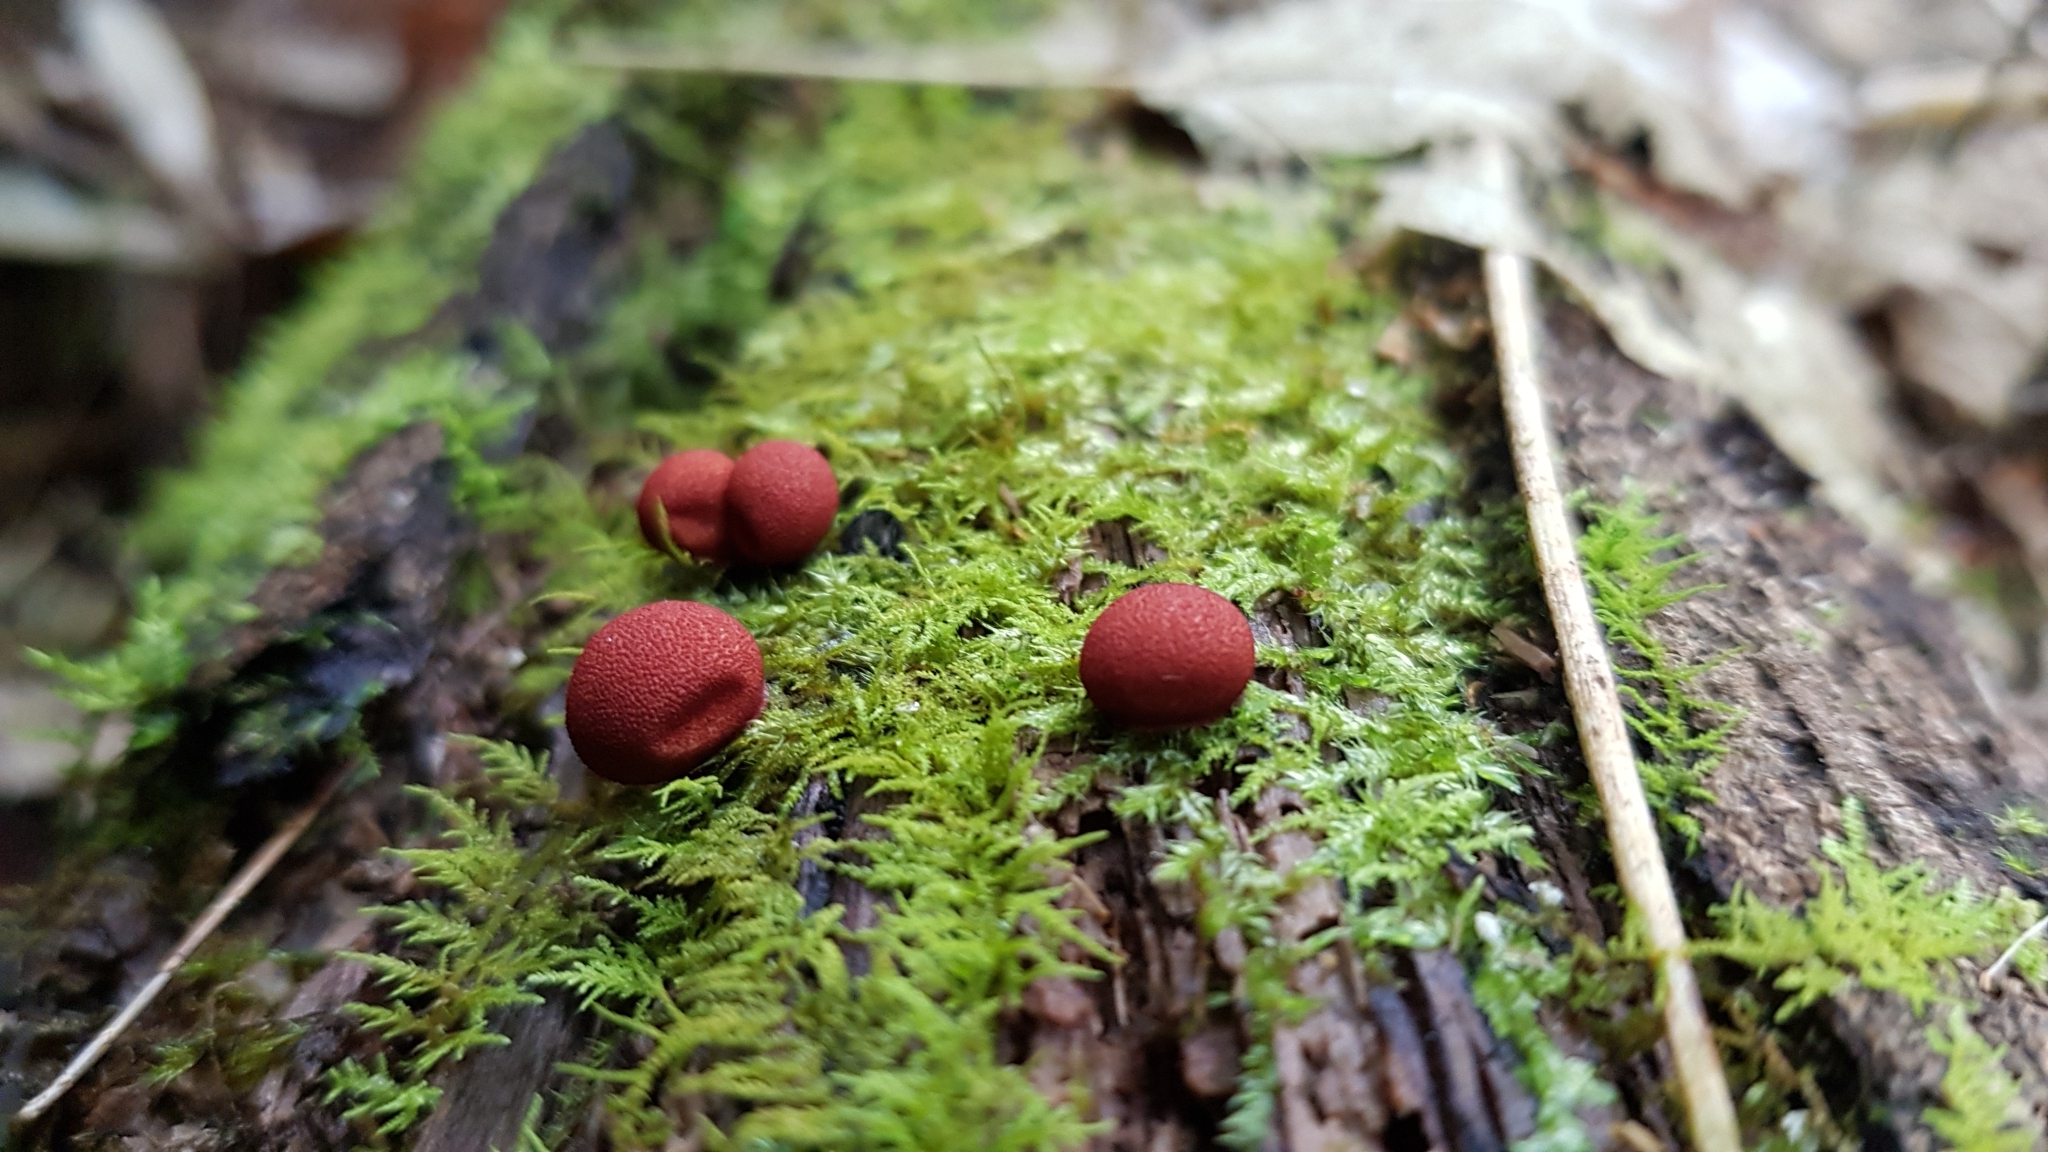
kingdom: Protozoa
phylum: Mycetozoa
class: Myxomycetes
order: Cribrariales
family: Tubiferaceae
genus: Lycogala
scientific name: Lycogala epidendrum
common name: Wolf's milk
